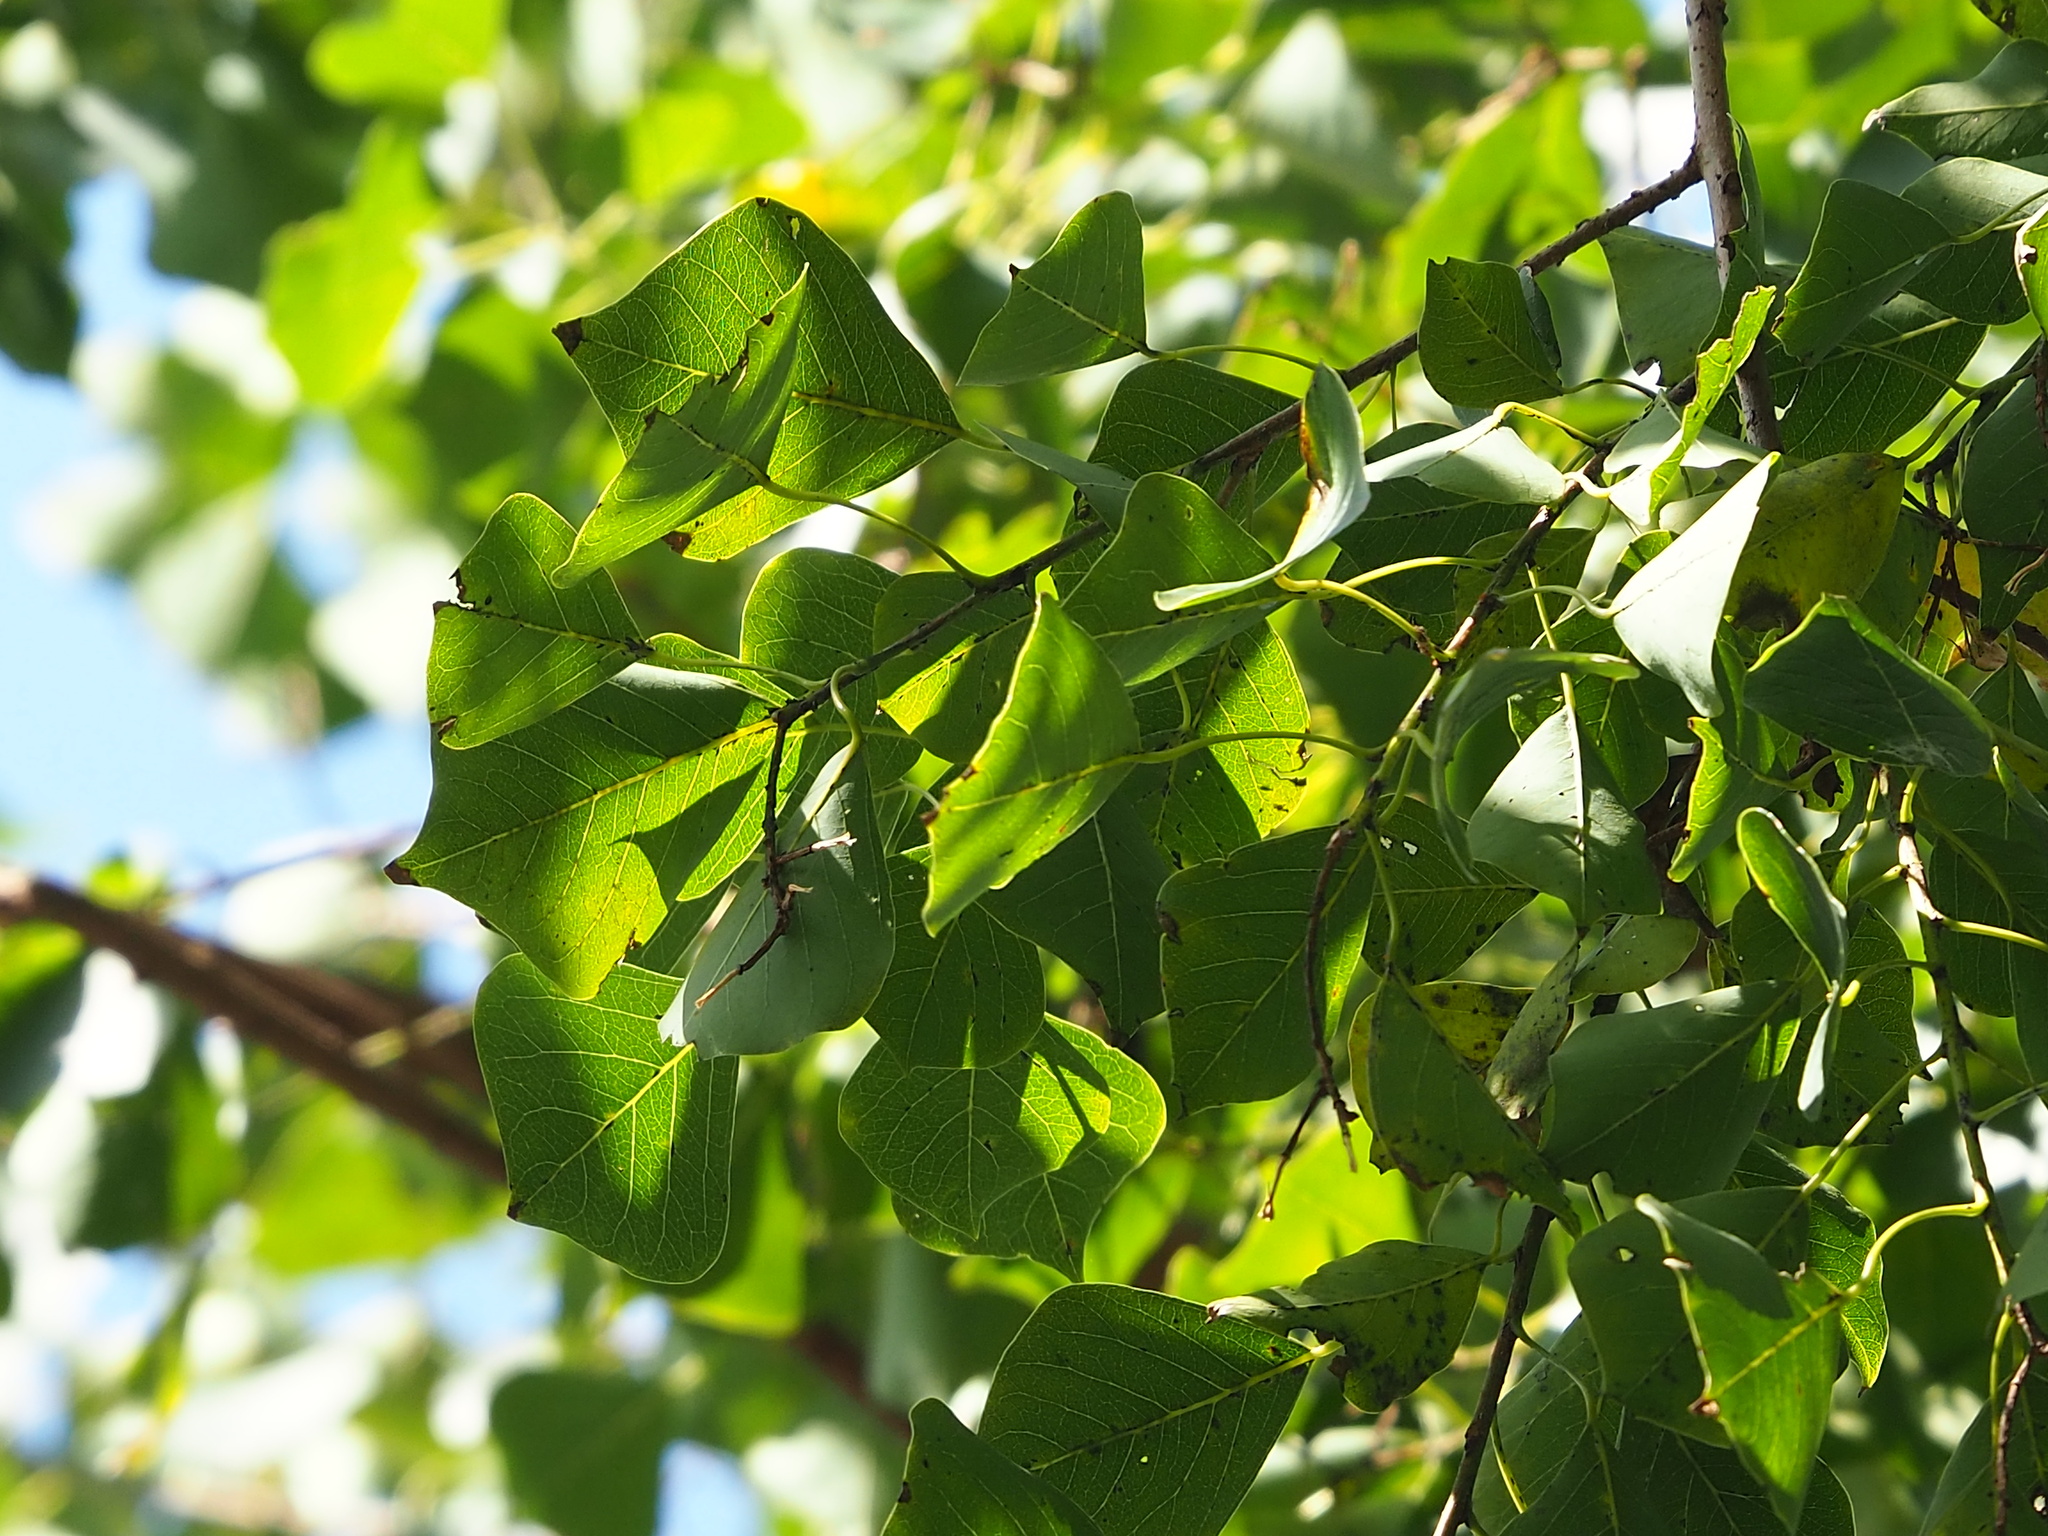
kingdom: Plantae
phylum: Tracheophyta
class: Magnoliopsida
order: Malpighiales
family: Euphorbiaceae
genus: Triadica
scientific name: Triadica sebifera
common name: Chinese tallow
